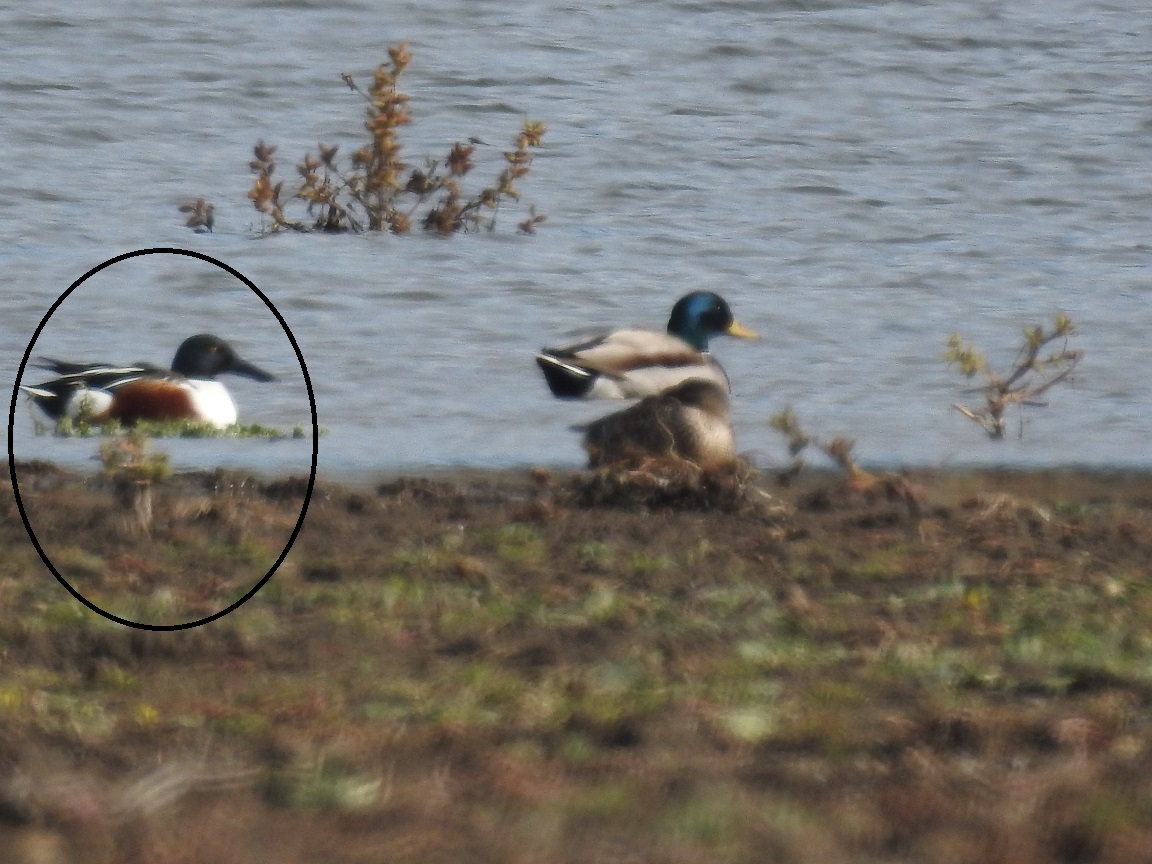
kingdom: Animalia
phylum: Chordata
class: Aves
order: Anseriformes
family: Anatidae
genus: Spatula
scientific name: Spatula clypeata
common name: Northern shoveler
